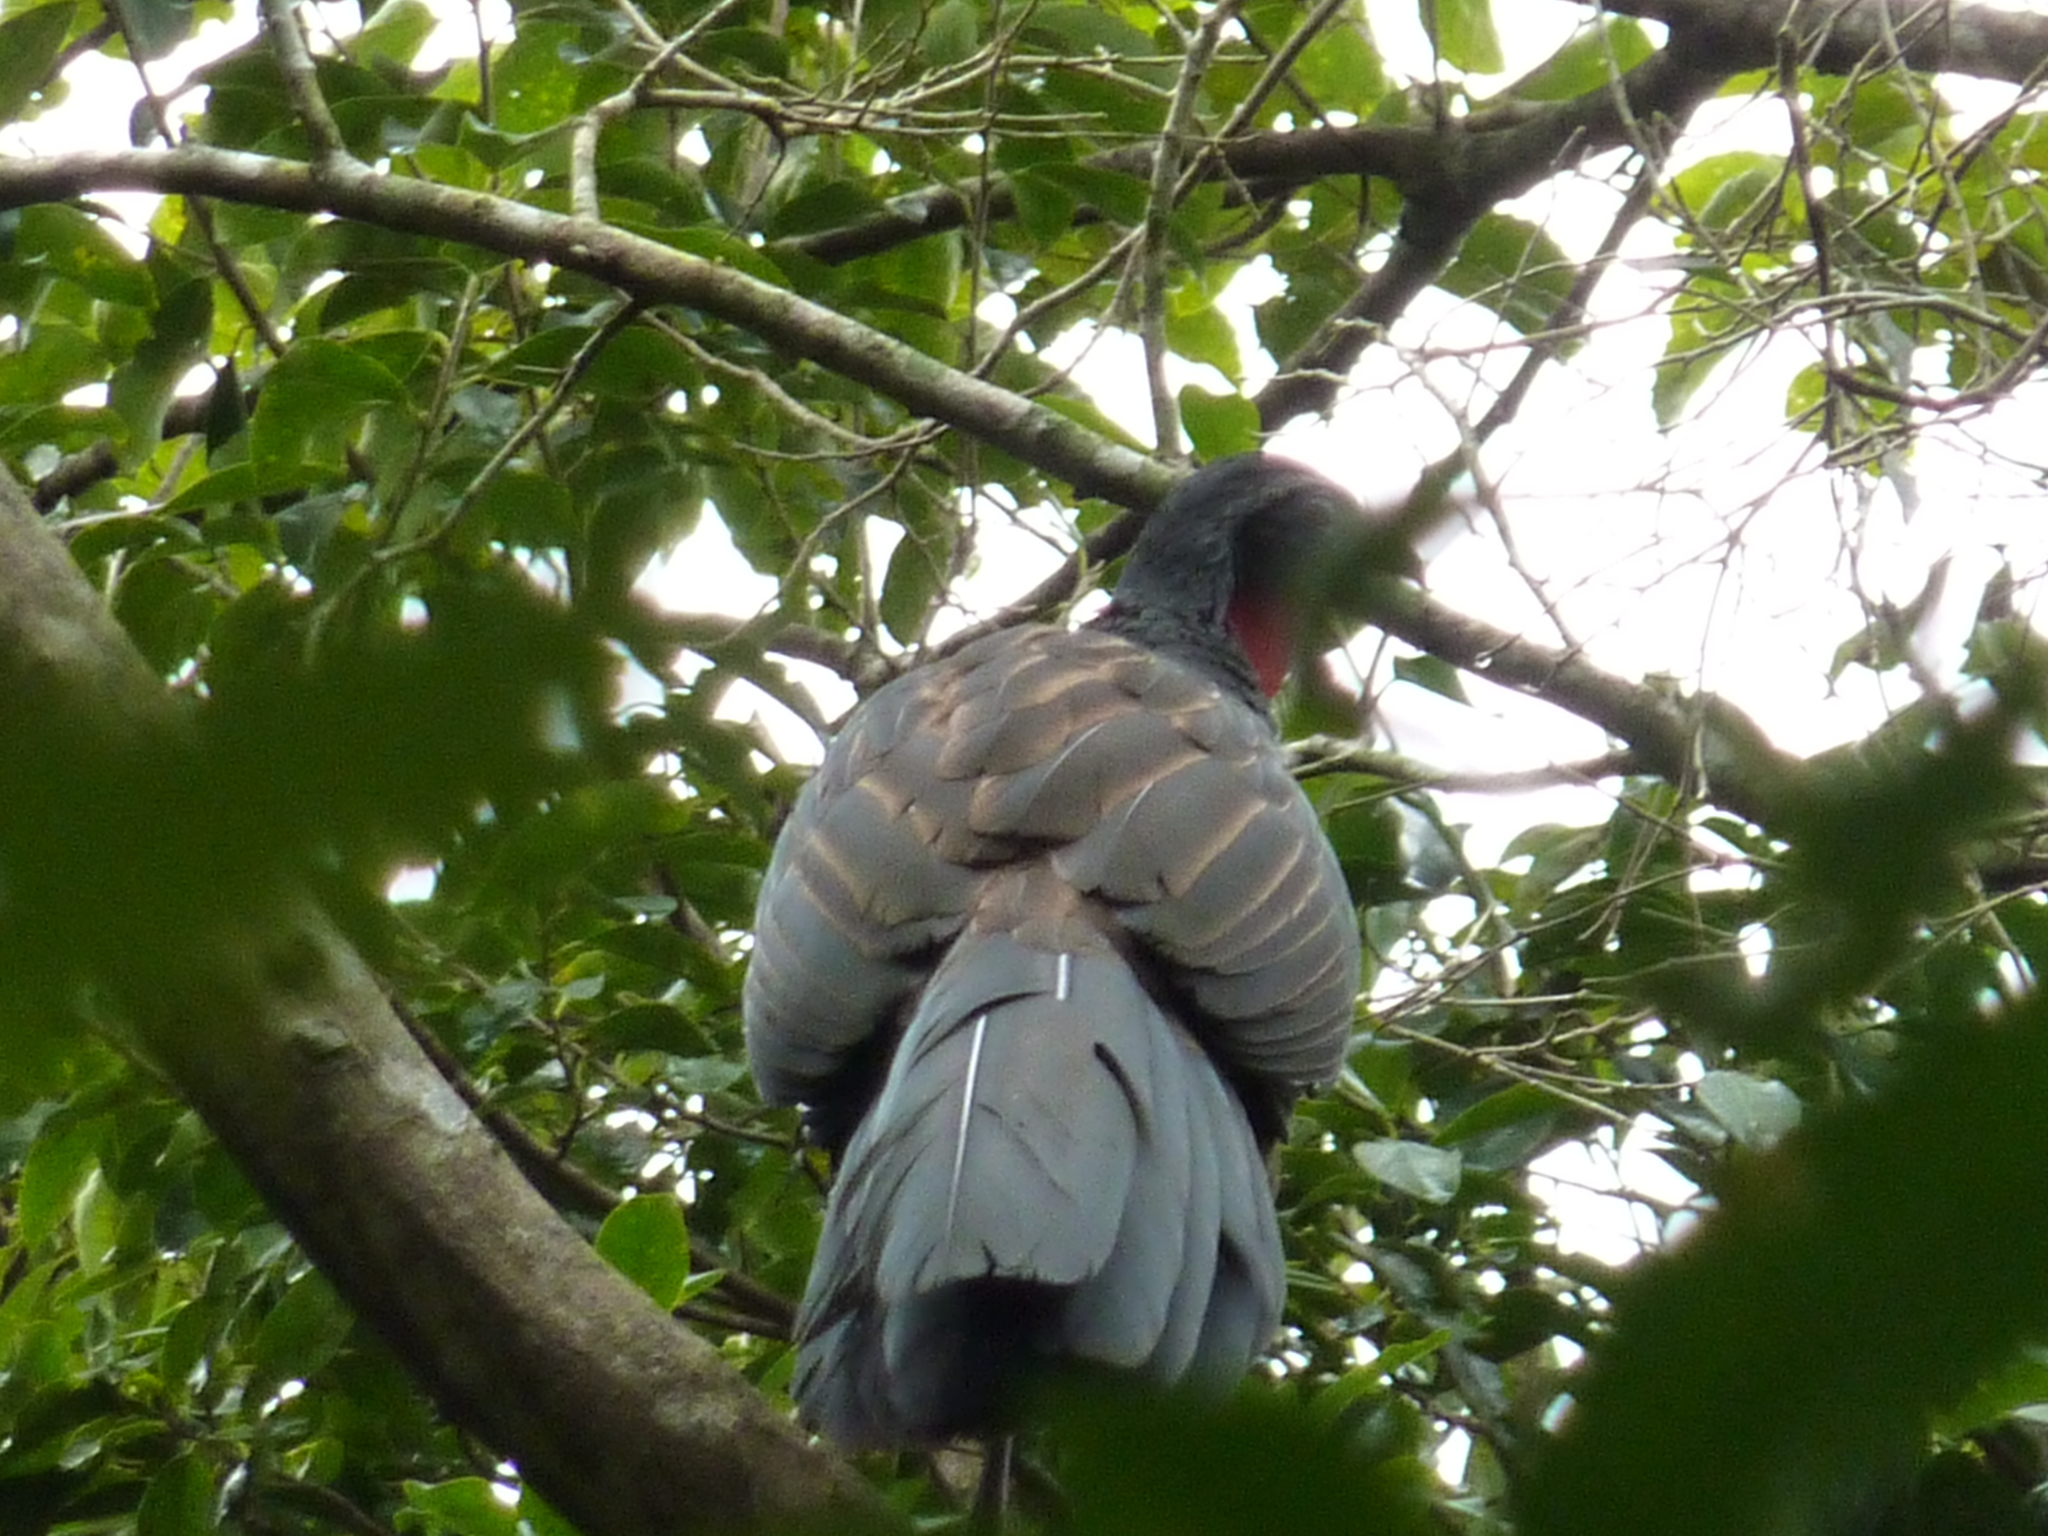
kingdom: Animalia
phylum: Chordata
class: Aves
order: Galliformes
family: Cracidae
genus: Penelope
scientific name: Penelope superciliaris
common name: Rusty-margined guan
